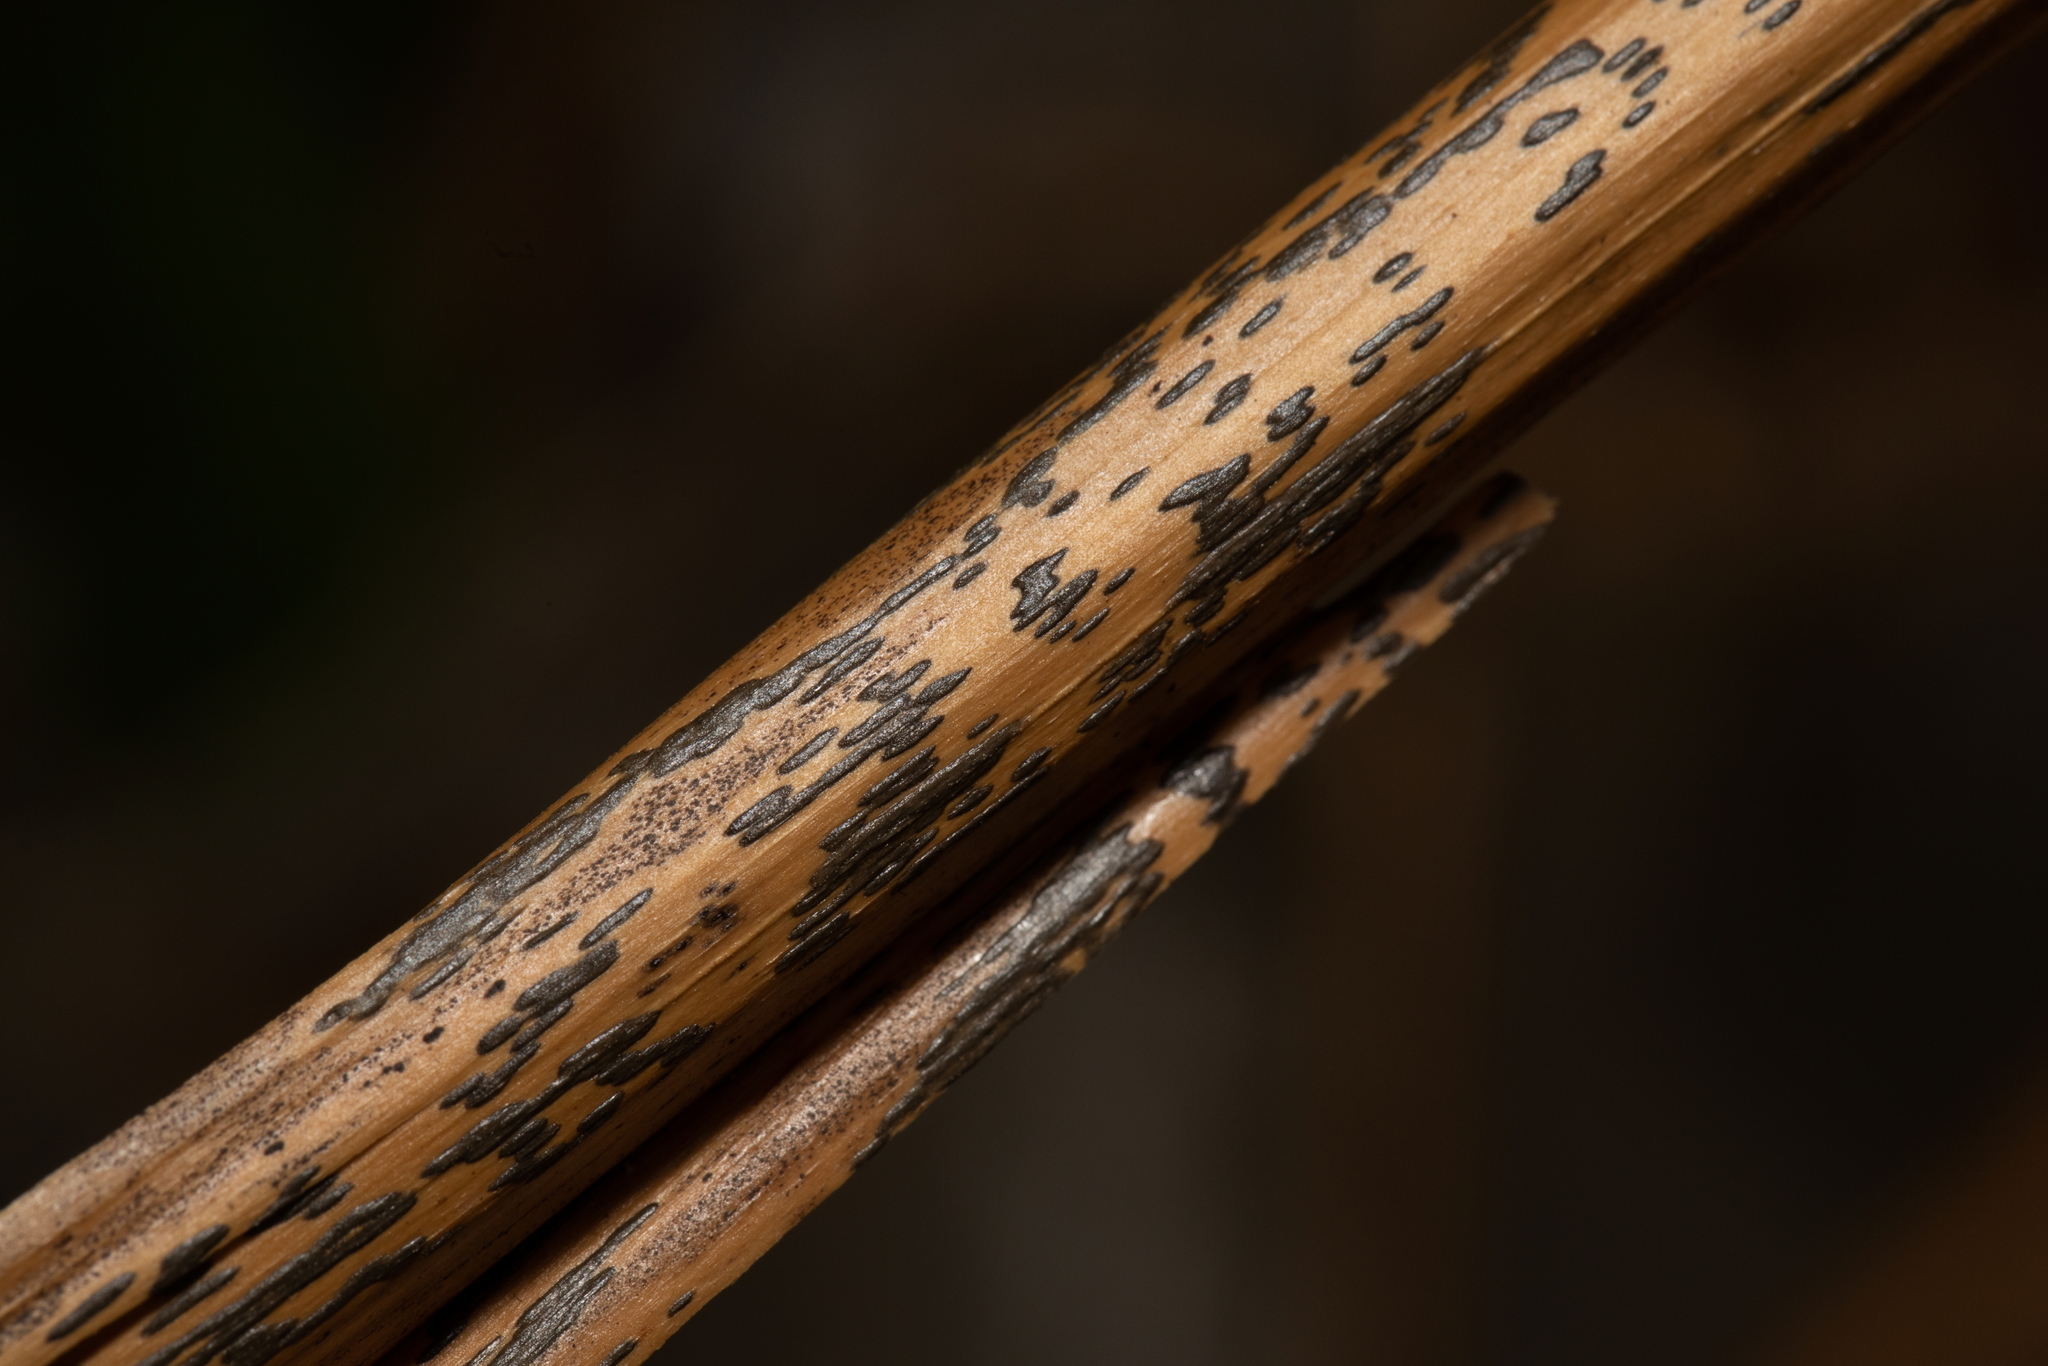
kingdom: Fungi
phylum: Ascomycota
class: Dothideomycetes
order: Pleosporales
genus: Rhopographus
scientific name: Rhopographus filicinus
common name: Bracken map
